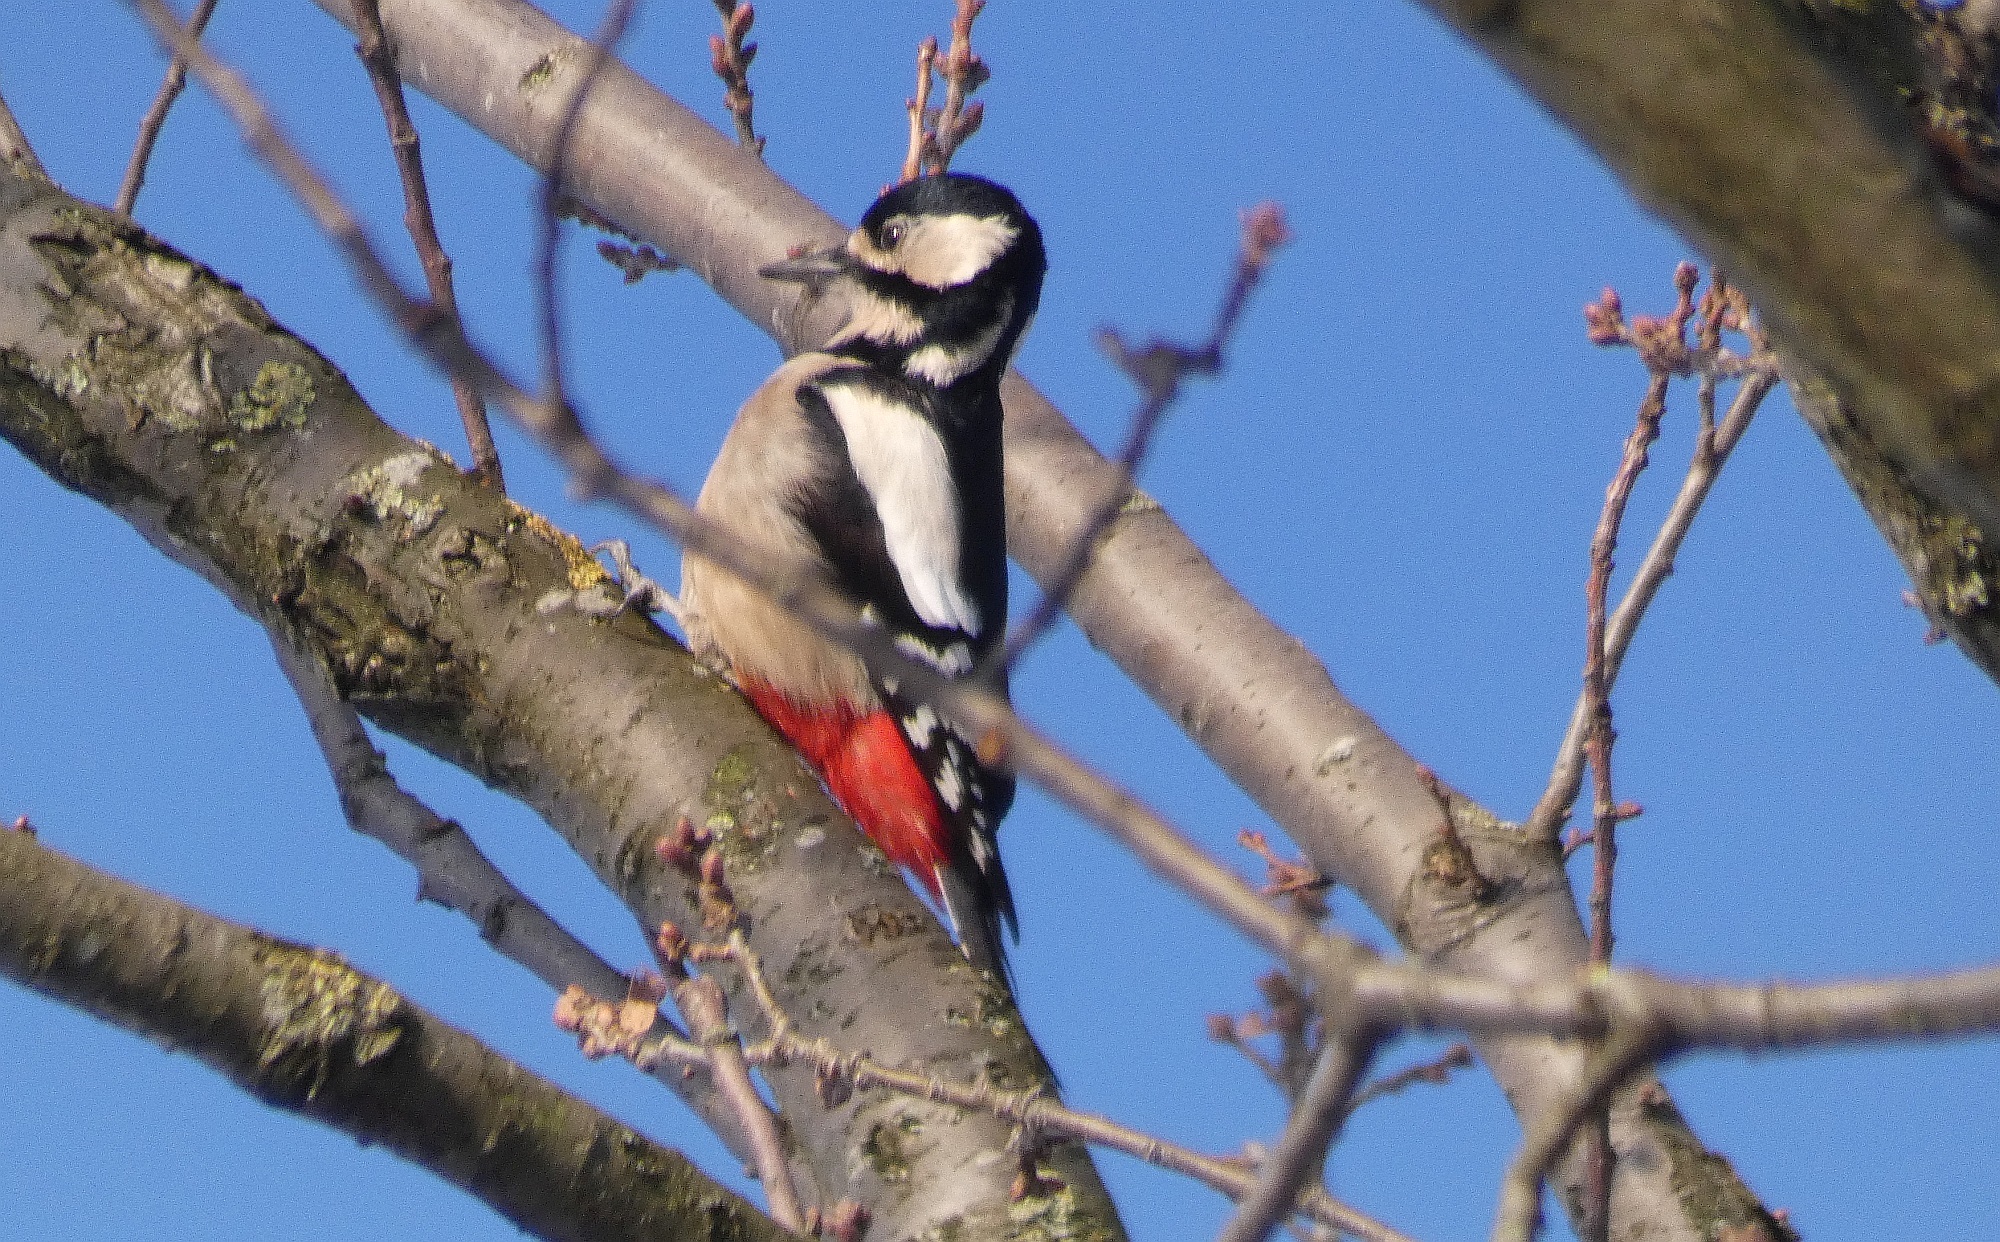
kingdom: Animalia
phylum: Chordata
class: Aves
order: Piciformes
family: Picidae
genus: Dendrocopos
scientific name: Dendrocopos major
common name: Great spotted woodpecker
